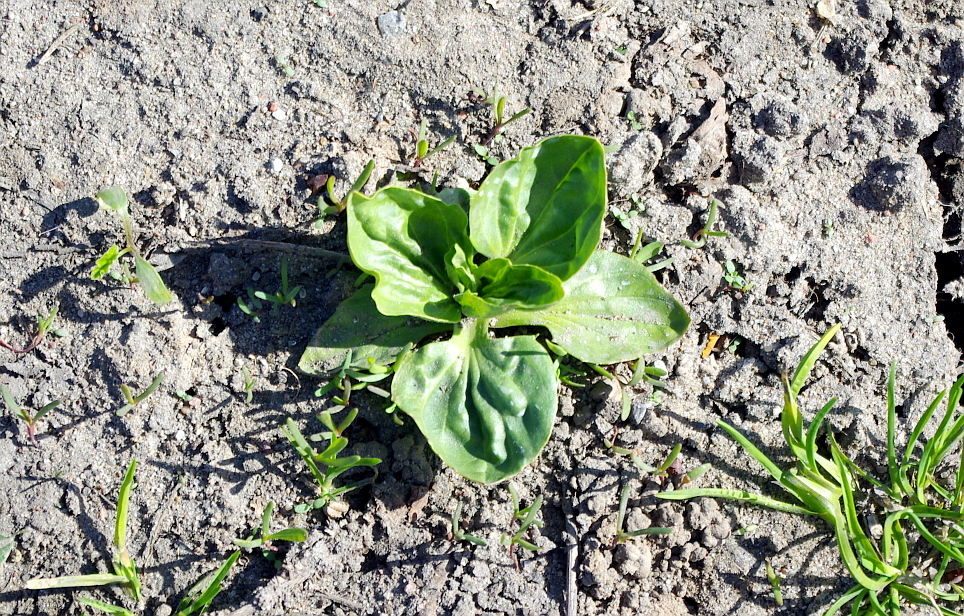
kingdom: Plantae
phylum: Tracheophyta
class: Magnoliopsida
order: Lamiales
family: Plantaginaceae
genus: Plantago
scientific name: Plantago major
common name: Common plantain
